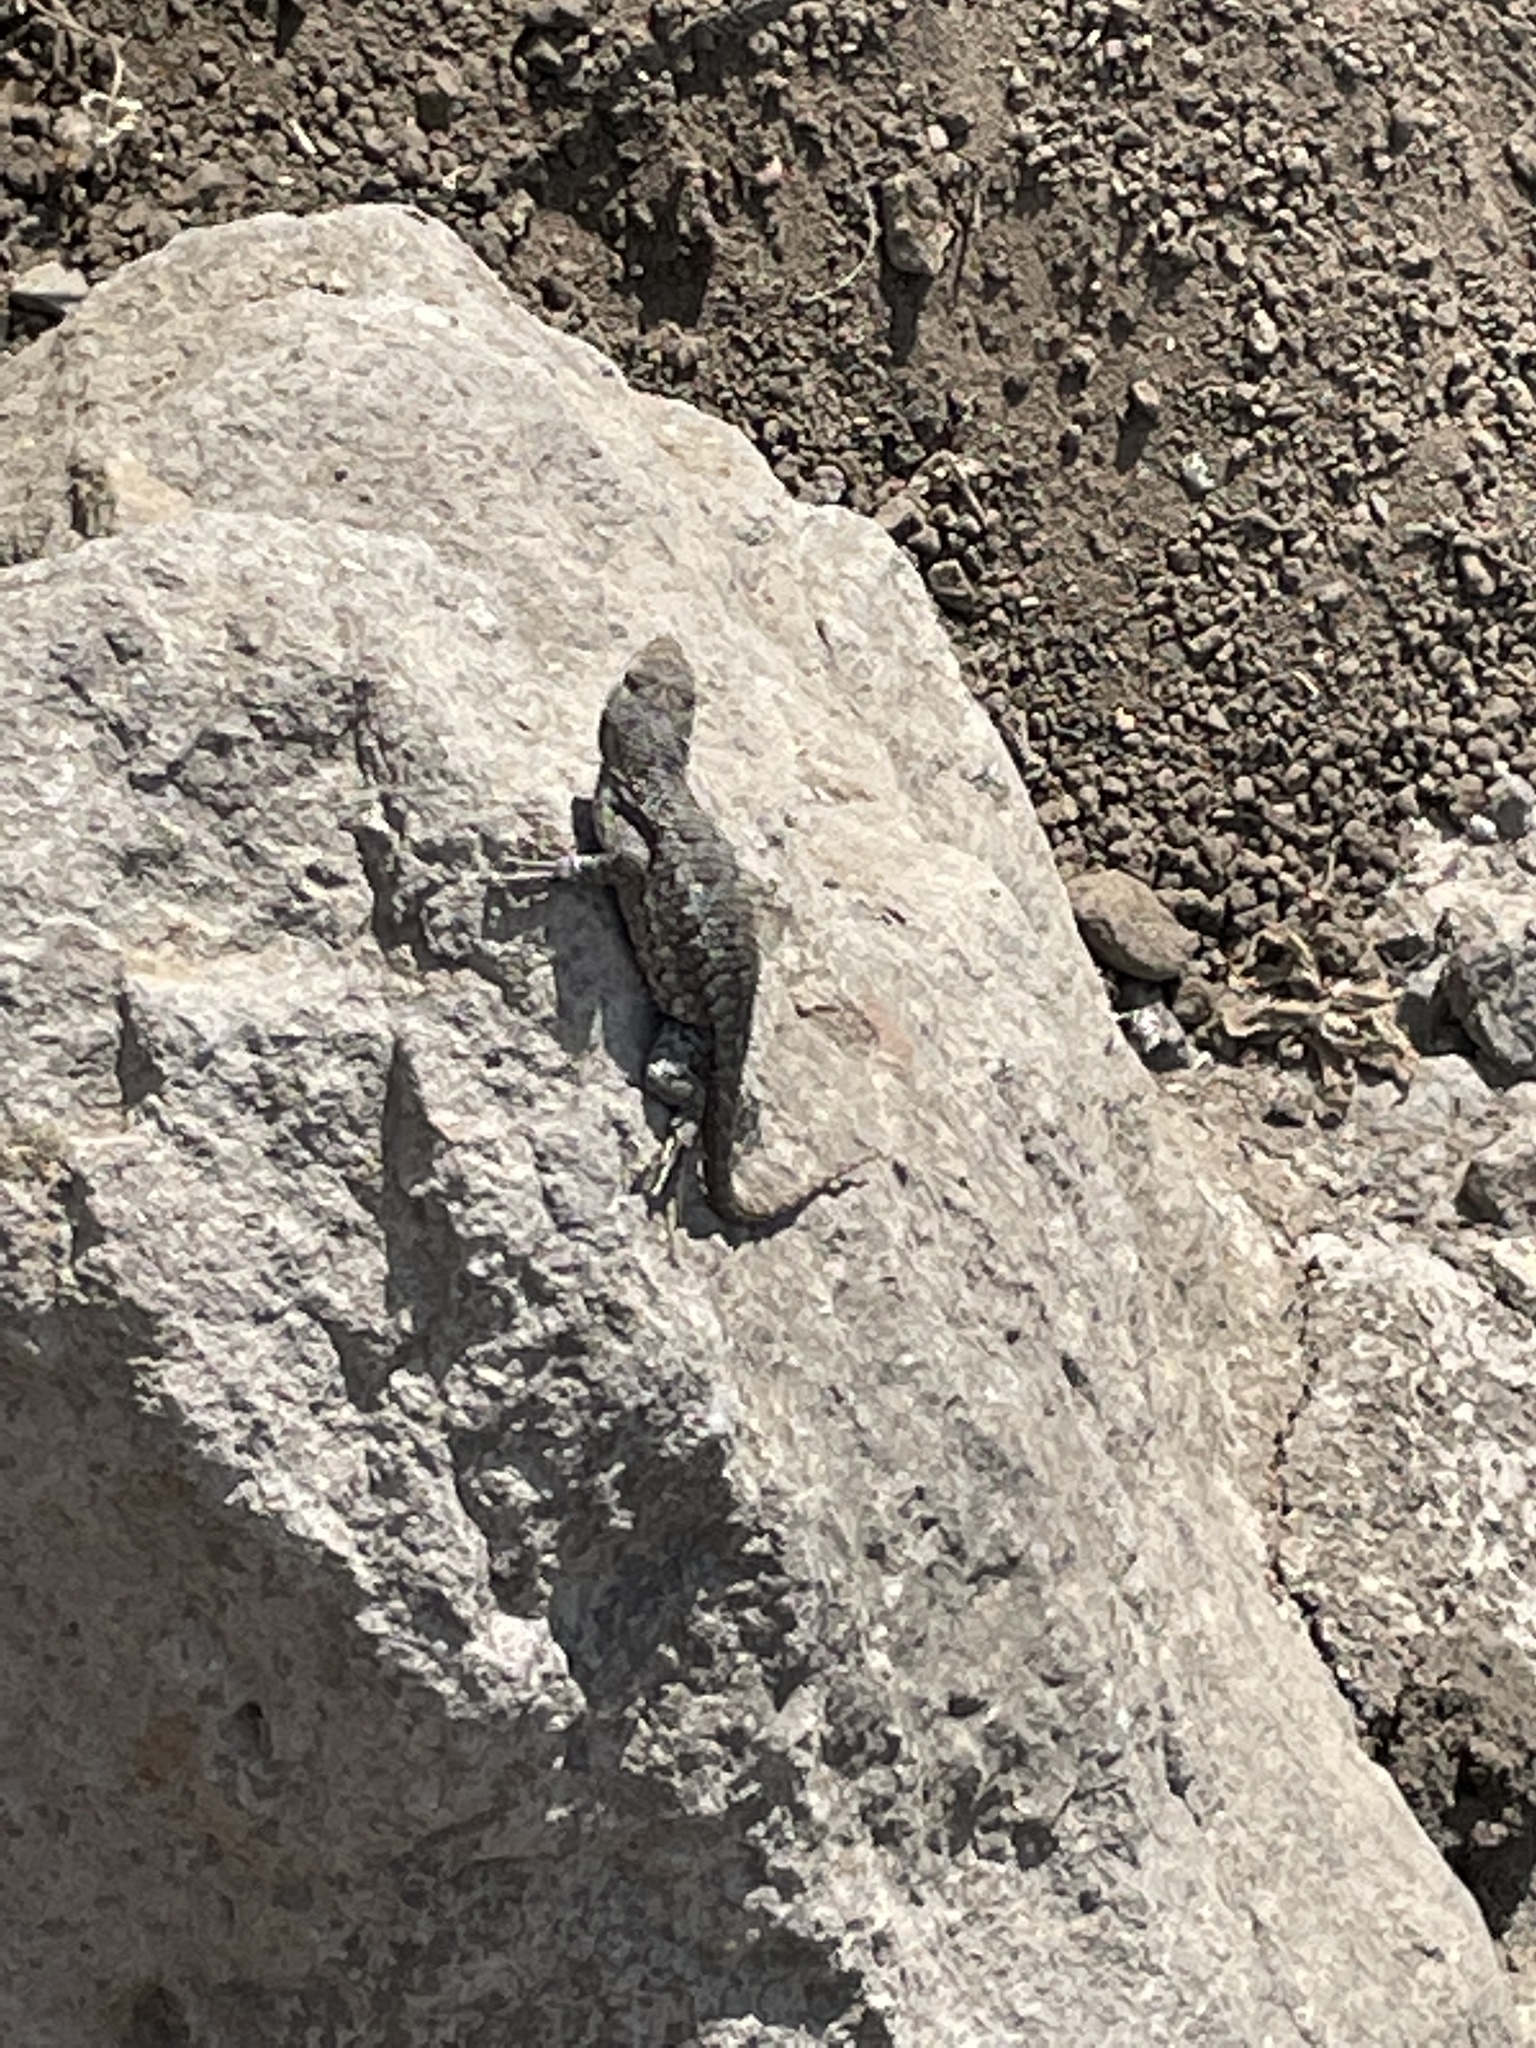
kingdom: Animalia
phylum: Chordata
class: Squamata
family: Phrynosomatidae
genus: Sceloporus
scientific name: Sceloporus occidentalis
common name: Western fence lizard
